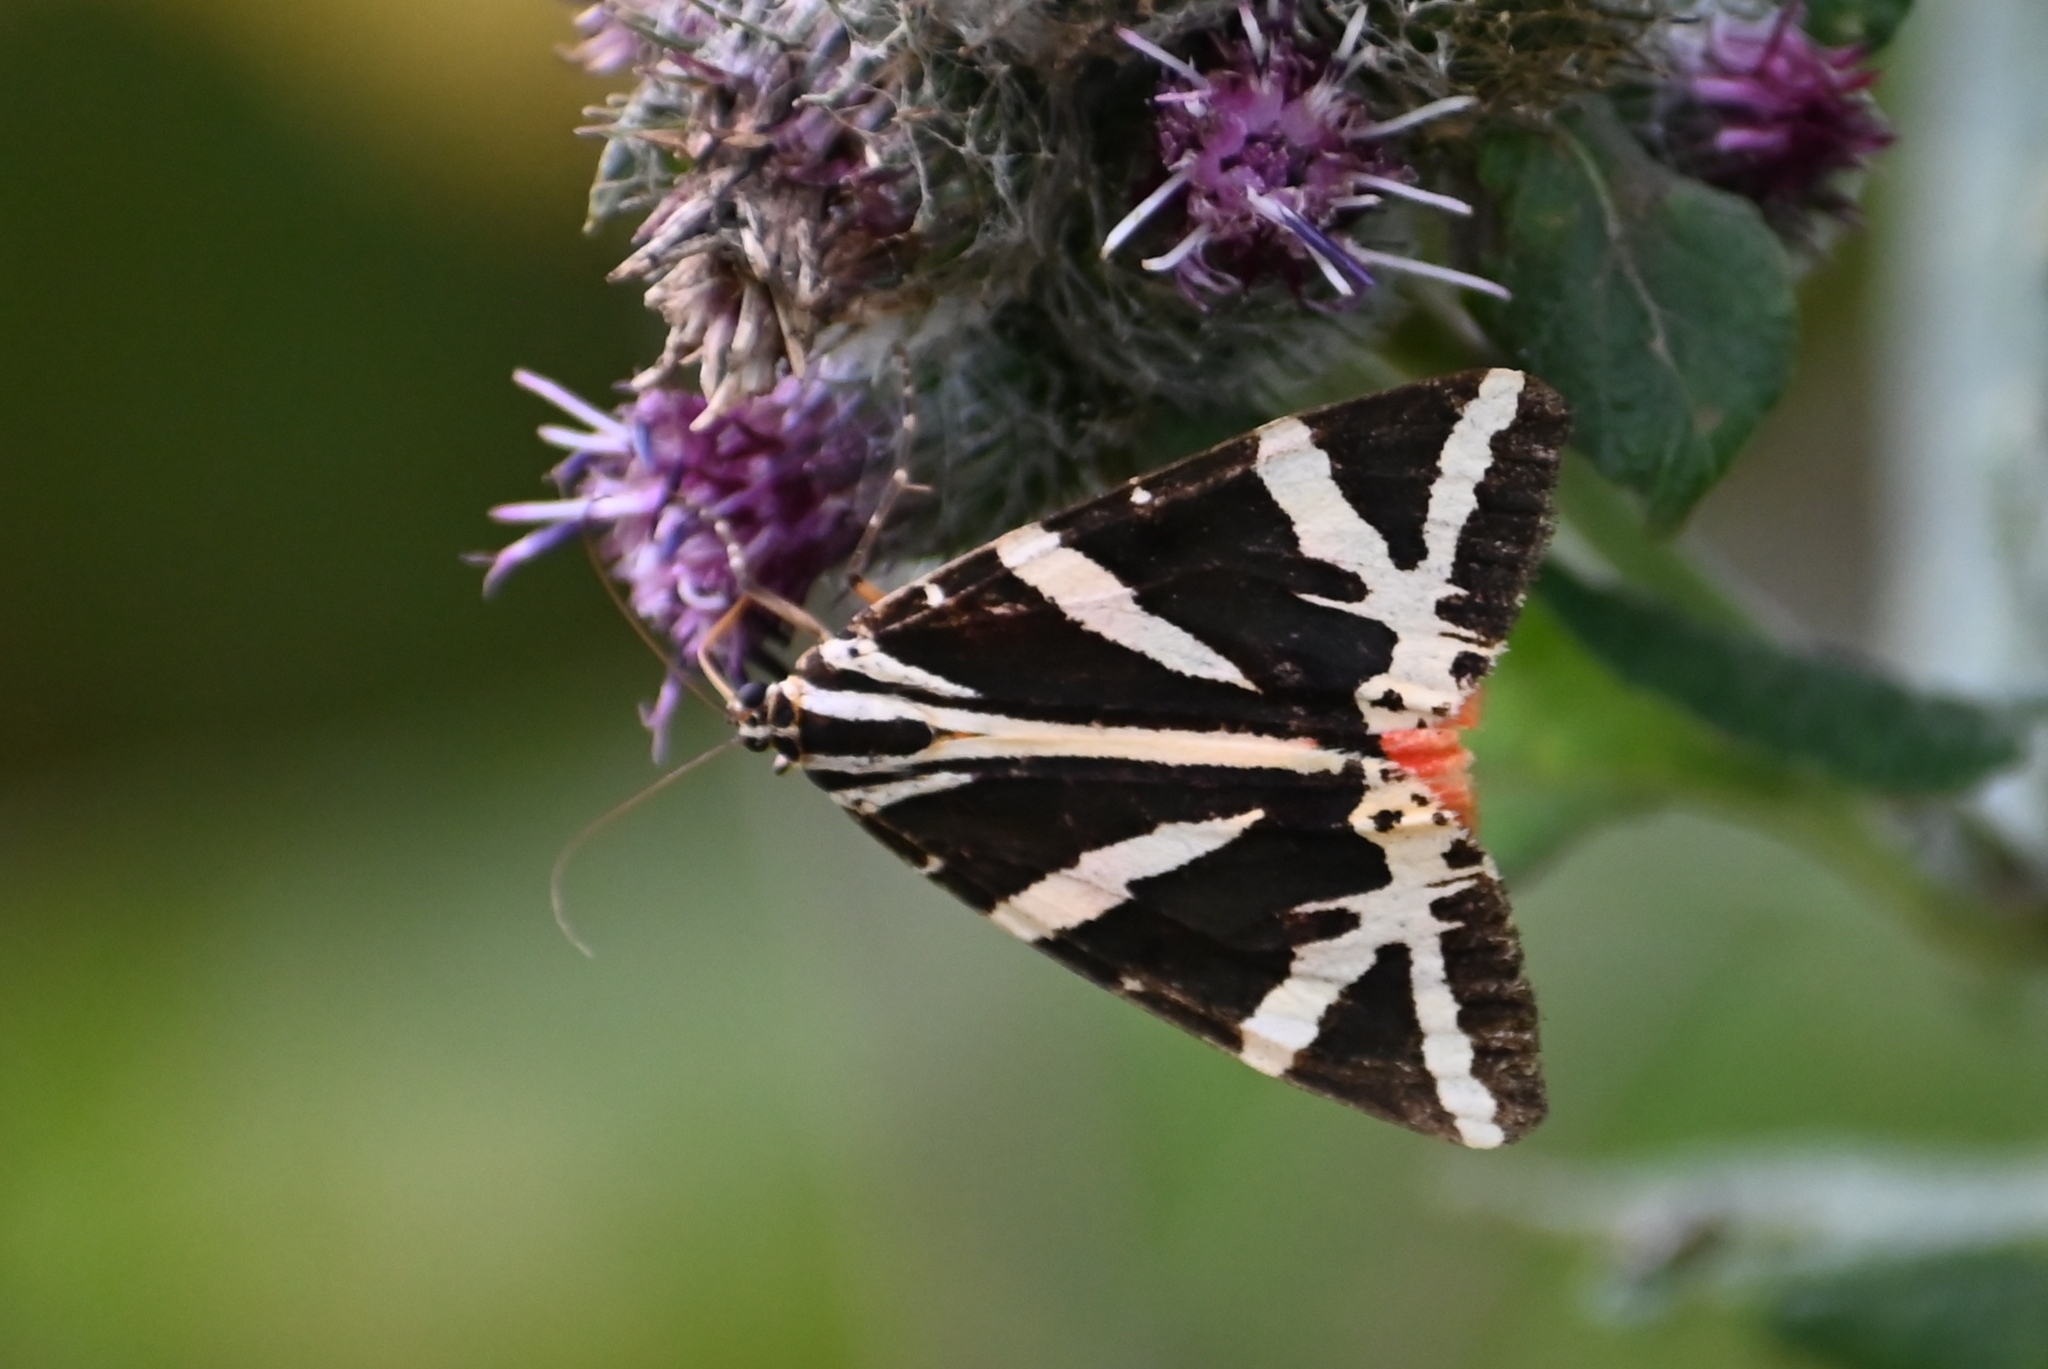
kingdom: Animalia
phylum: Arthropoda
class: Insecta
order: Lepidoptera
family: Erebidae
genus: Euplagia
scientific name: Euplagia quadripunctaria
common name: Jersey tiger
